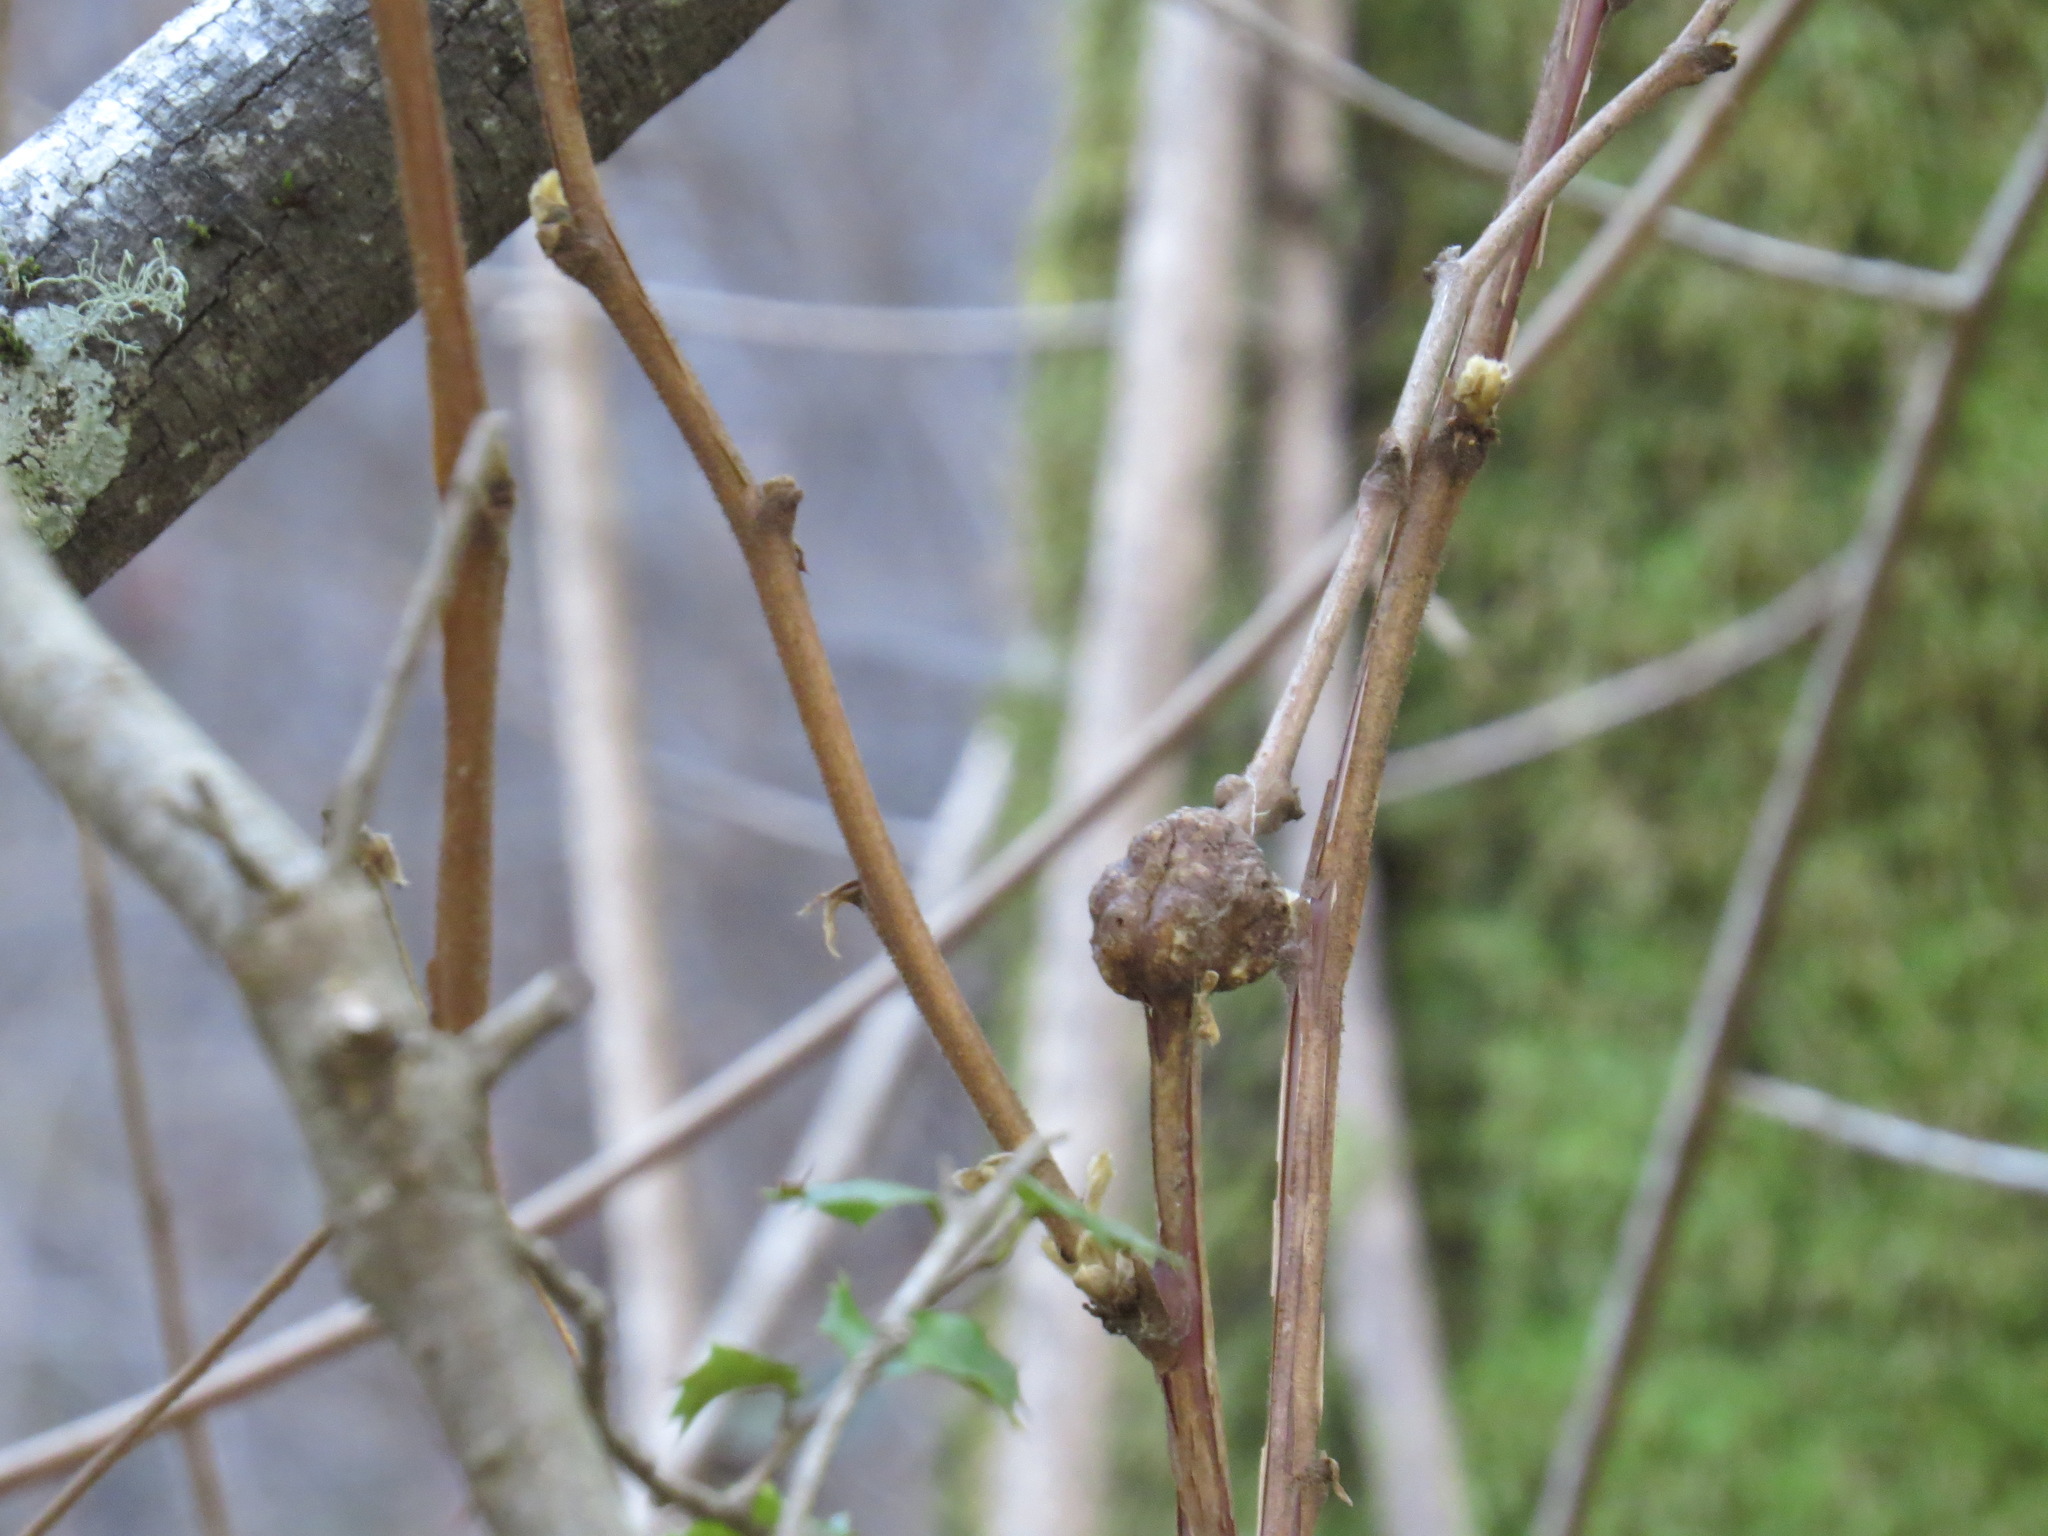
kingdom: Animalia
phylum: Arthropoda
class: Insecta
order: Hymenoptera
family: Cynipidae
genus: Diastrophus
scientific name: Diastrophus
